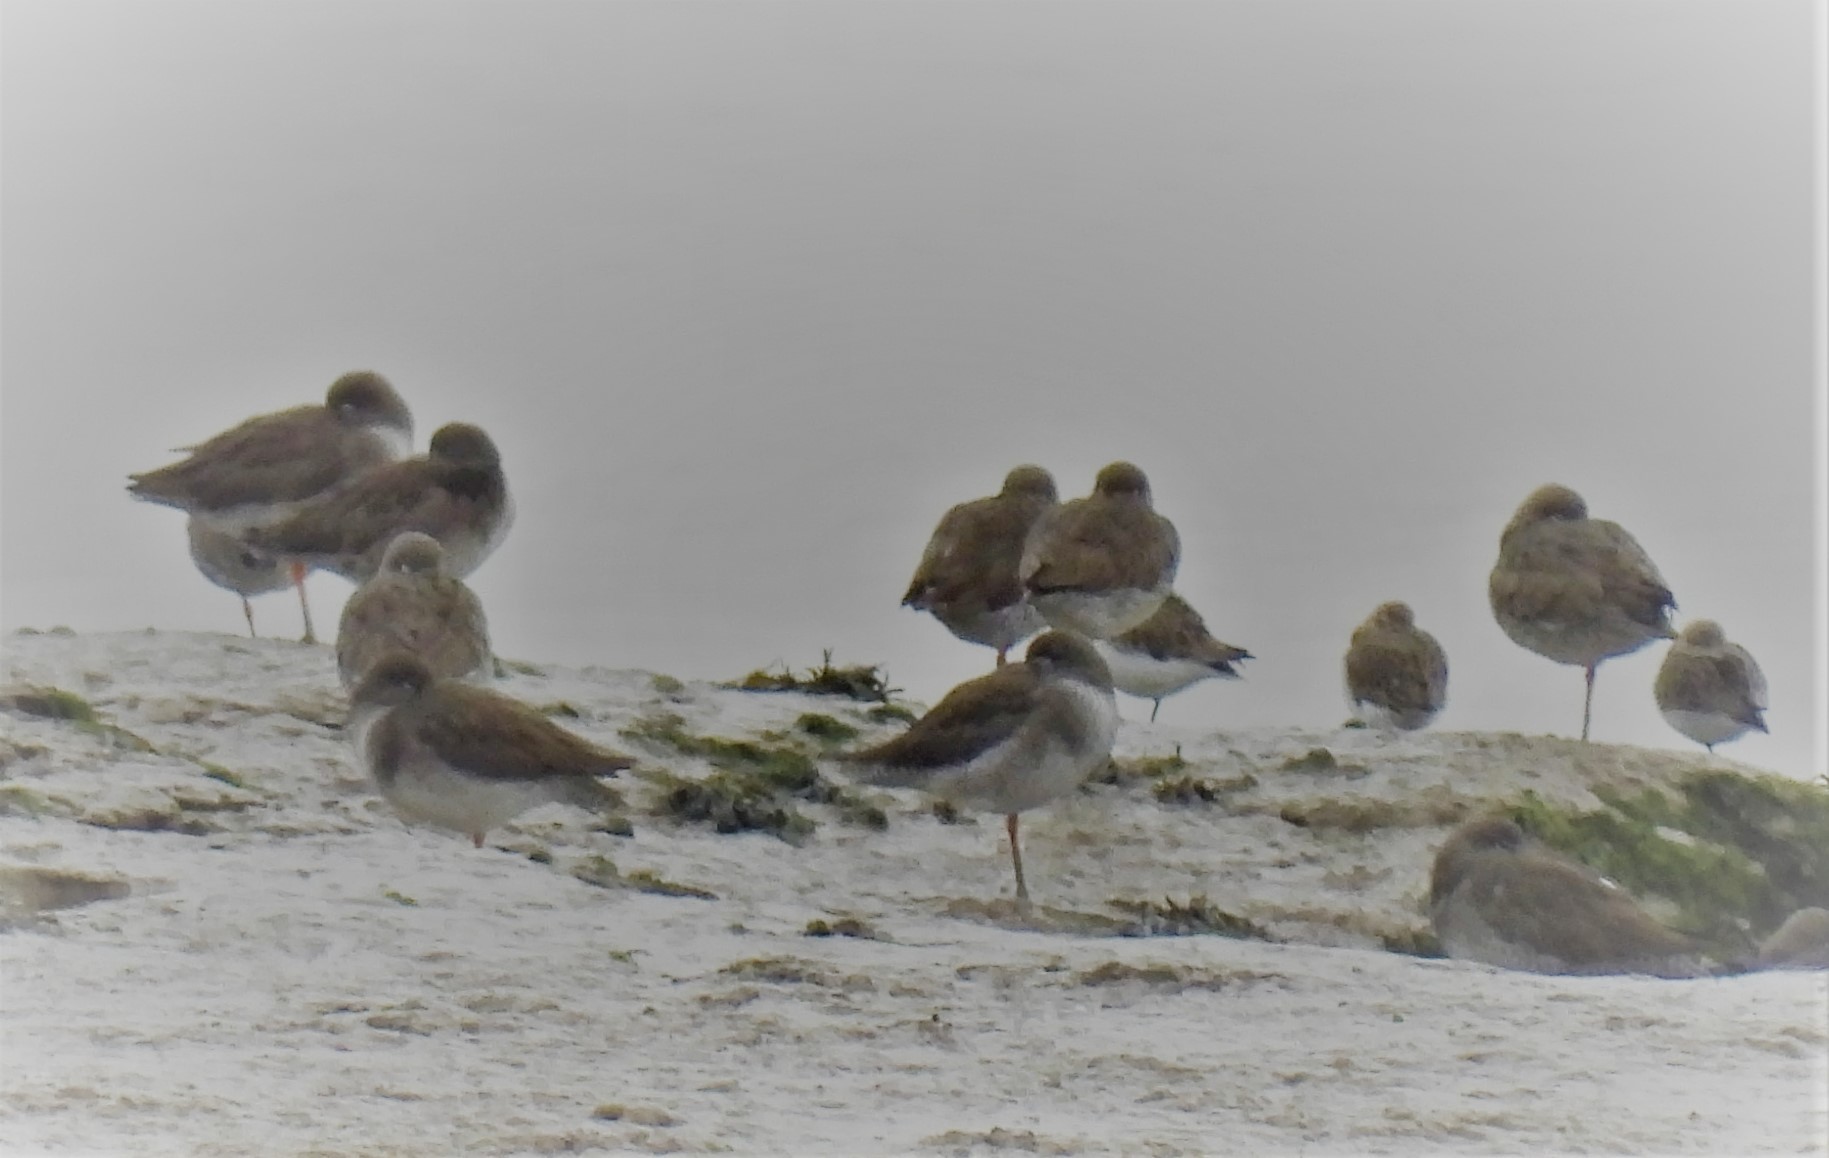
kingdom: Animalia
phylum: Chordata
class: Aves
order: Charadriiformes
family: Scolopacidae
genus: Tringa
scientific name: Tringa totanus
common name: Common redshank
